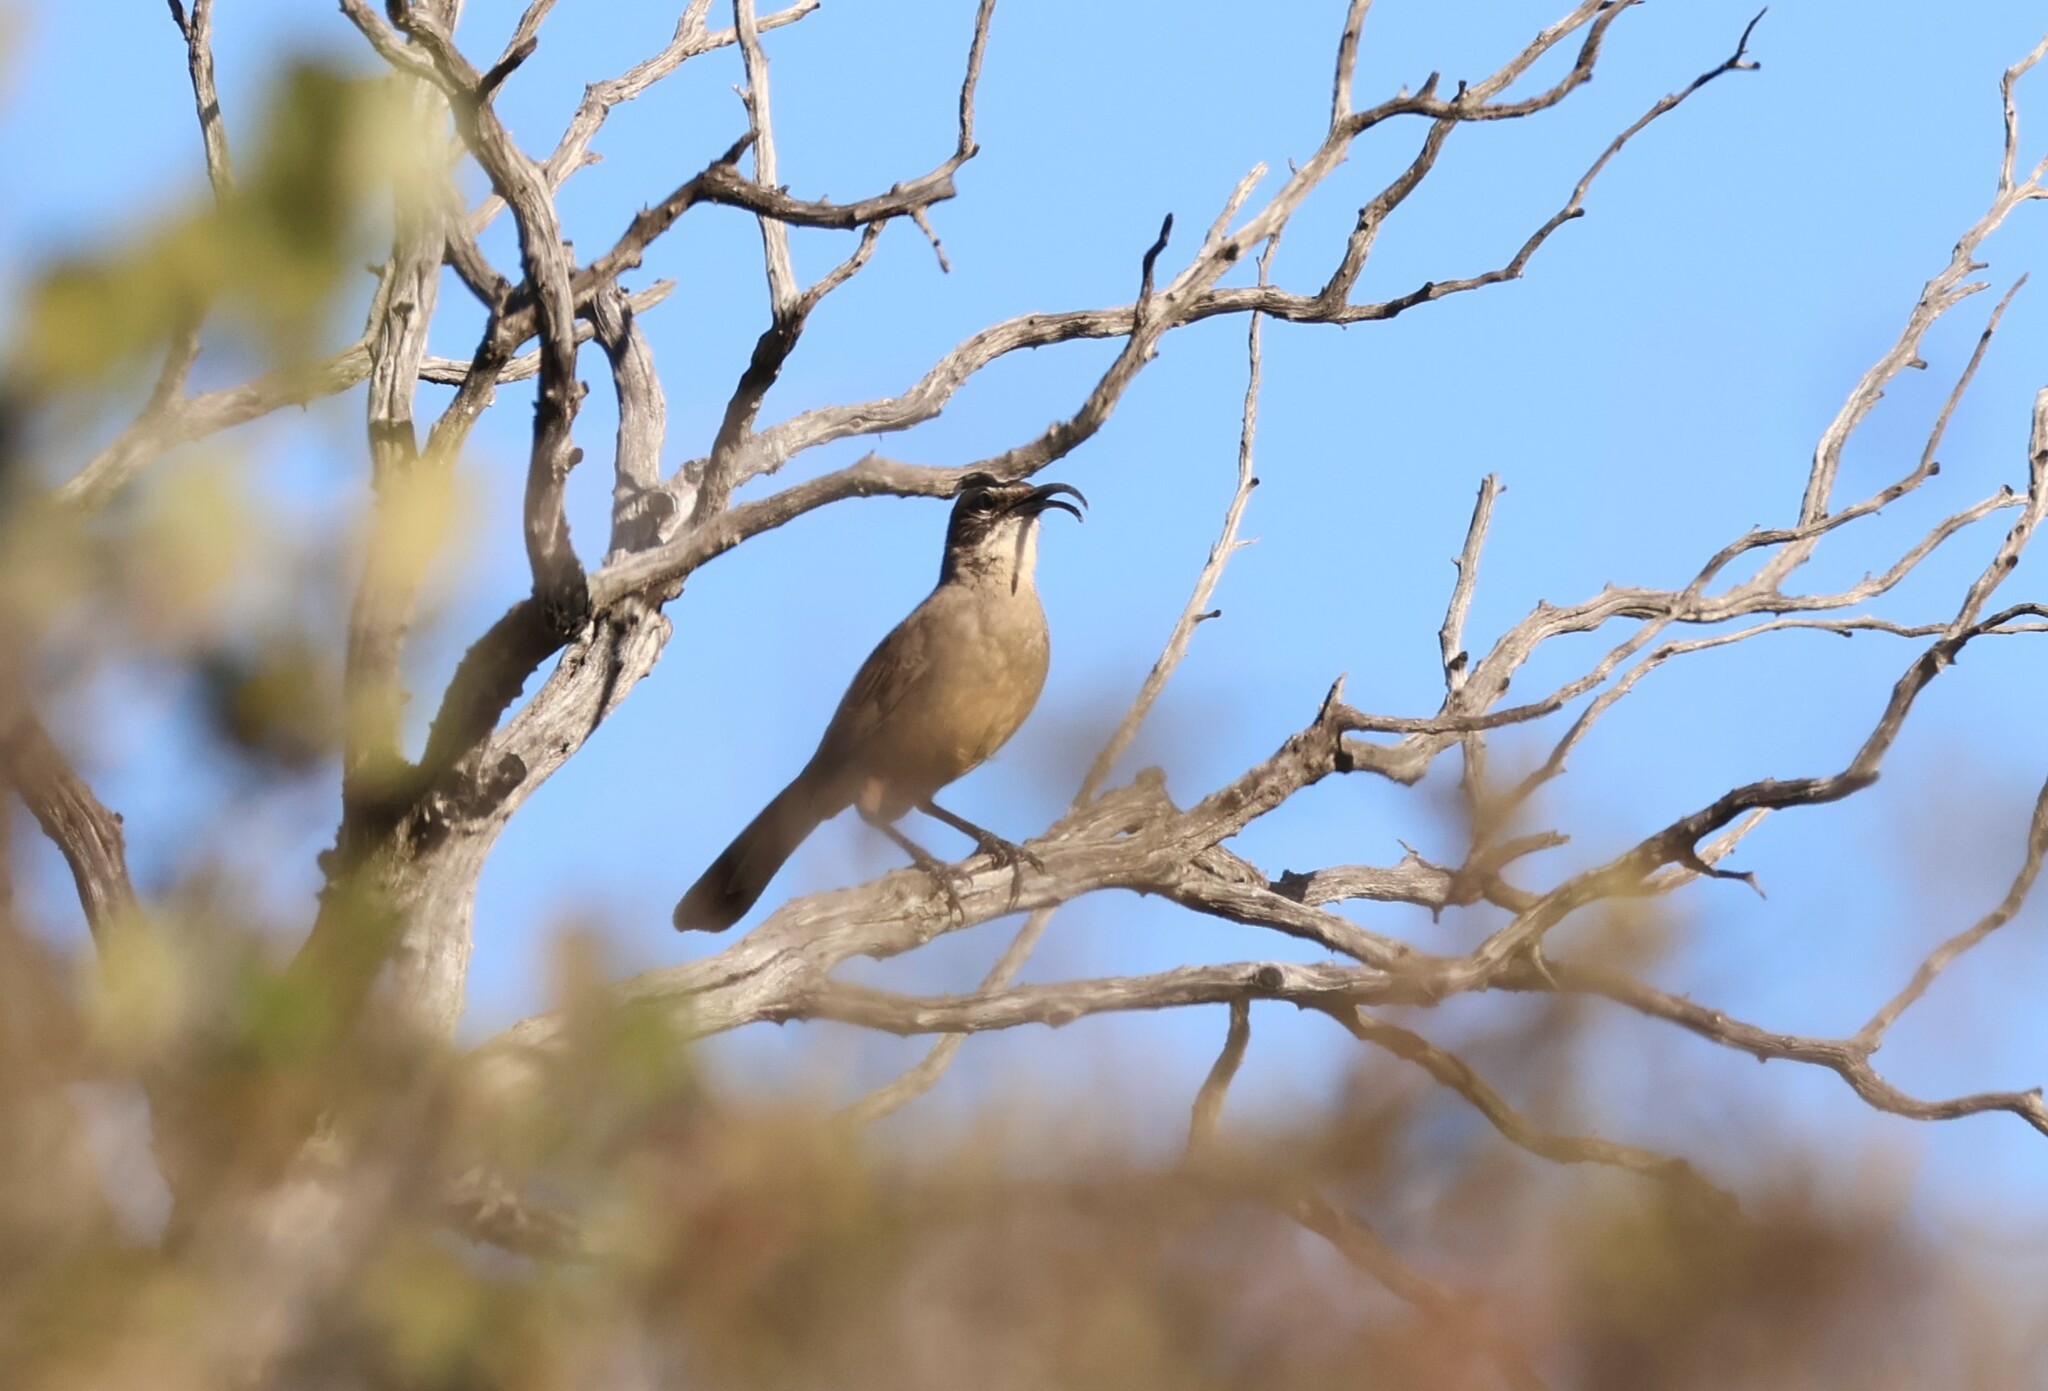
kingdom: Animalia
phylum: Chordata
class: Aves
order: Passeriformes
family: Mimidae
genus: Toxostoma
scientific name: Toxostoma redivivum
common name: California thrasher
